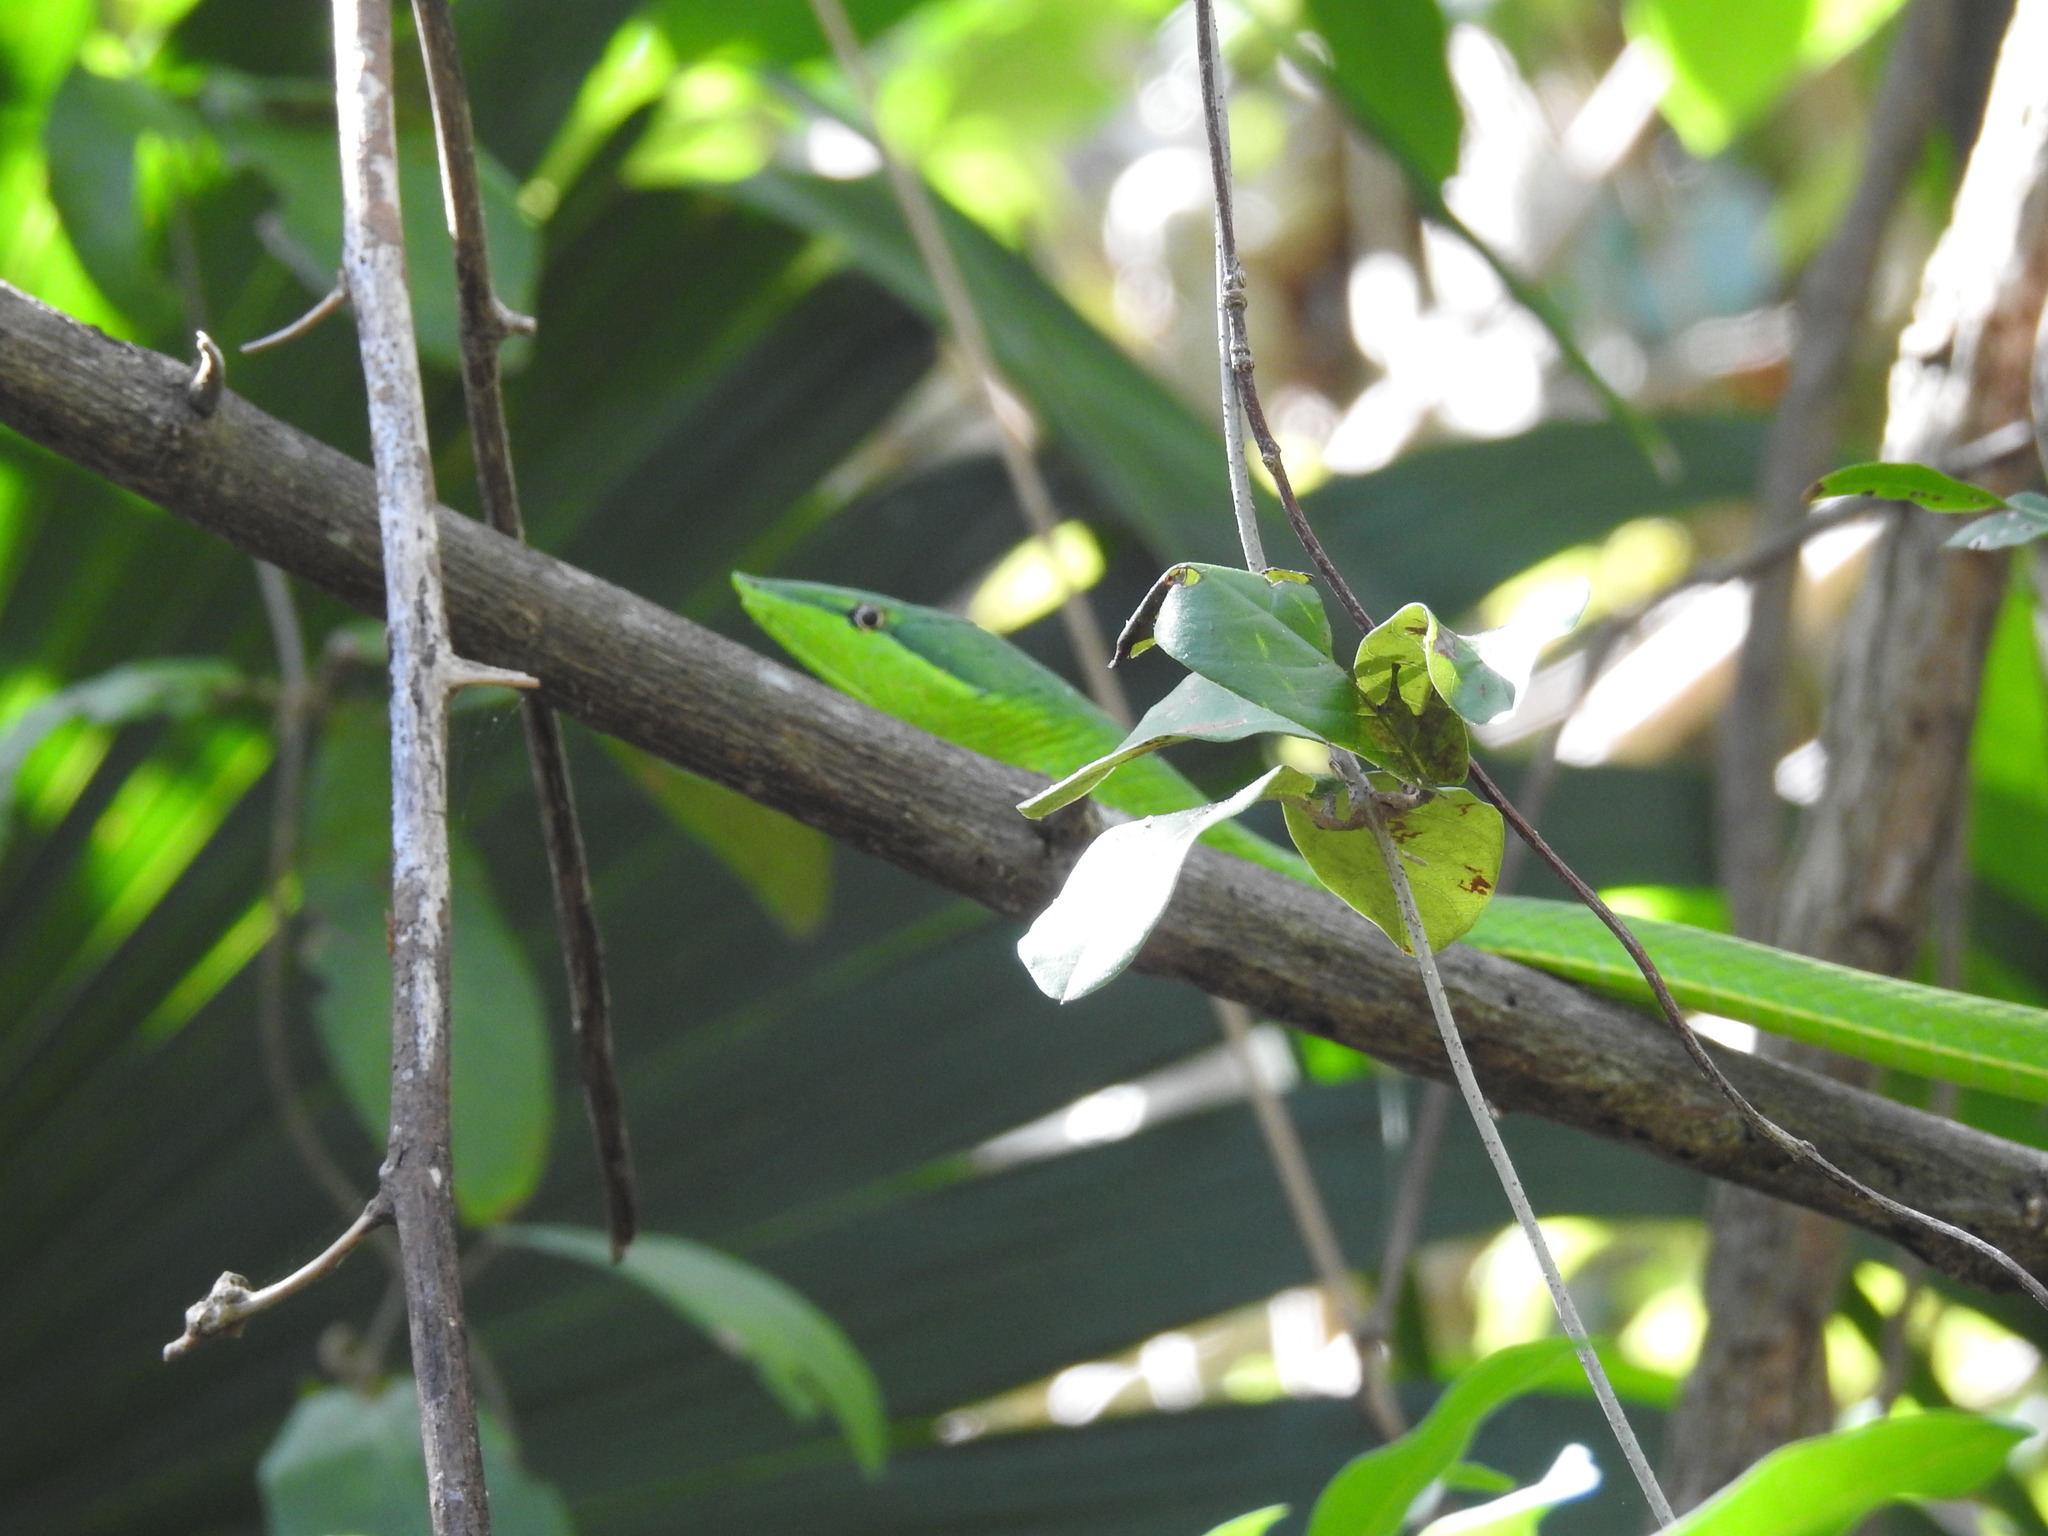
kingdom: Animalia
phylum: Chordata
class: Squamata
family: Colubridae
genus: Oxybelis
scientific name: Oxybelis fulgidus
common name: Green vine snake
